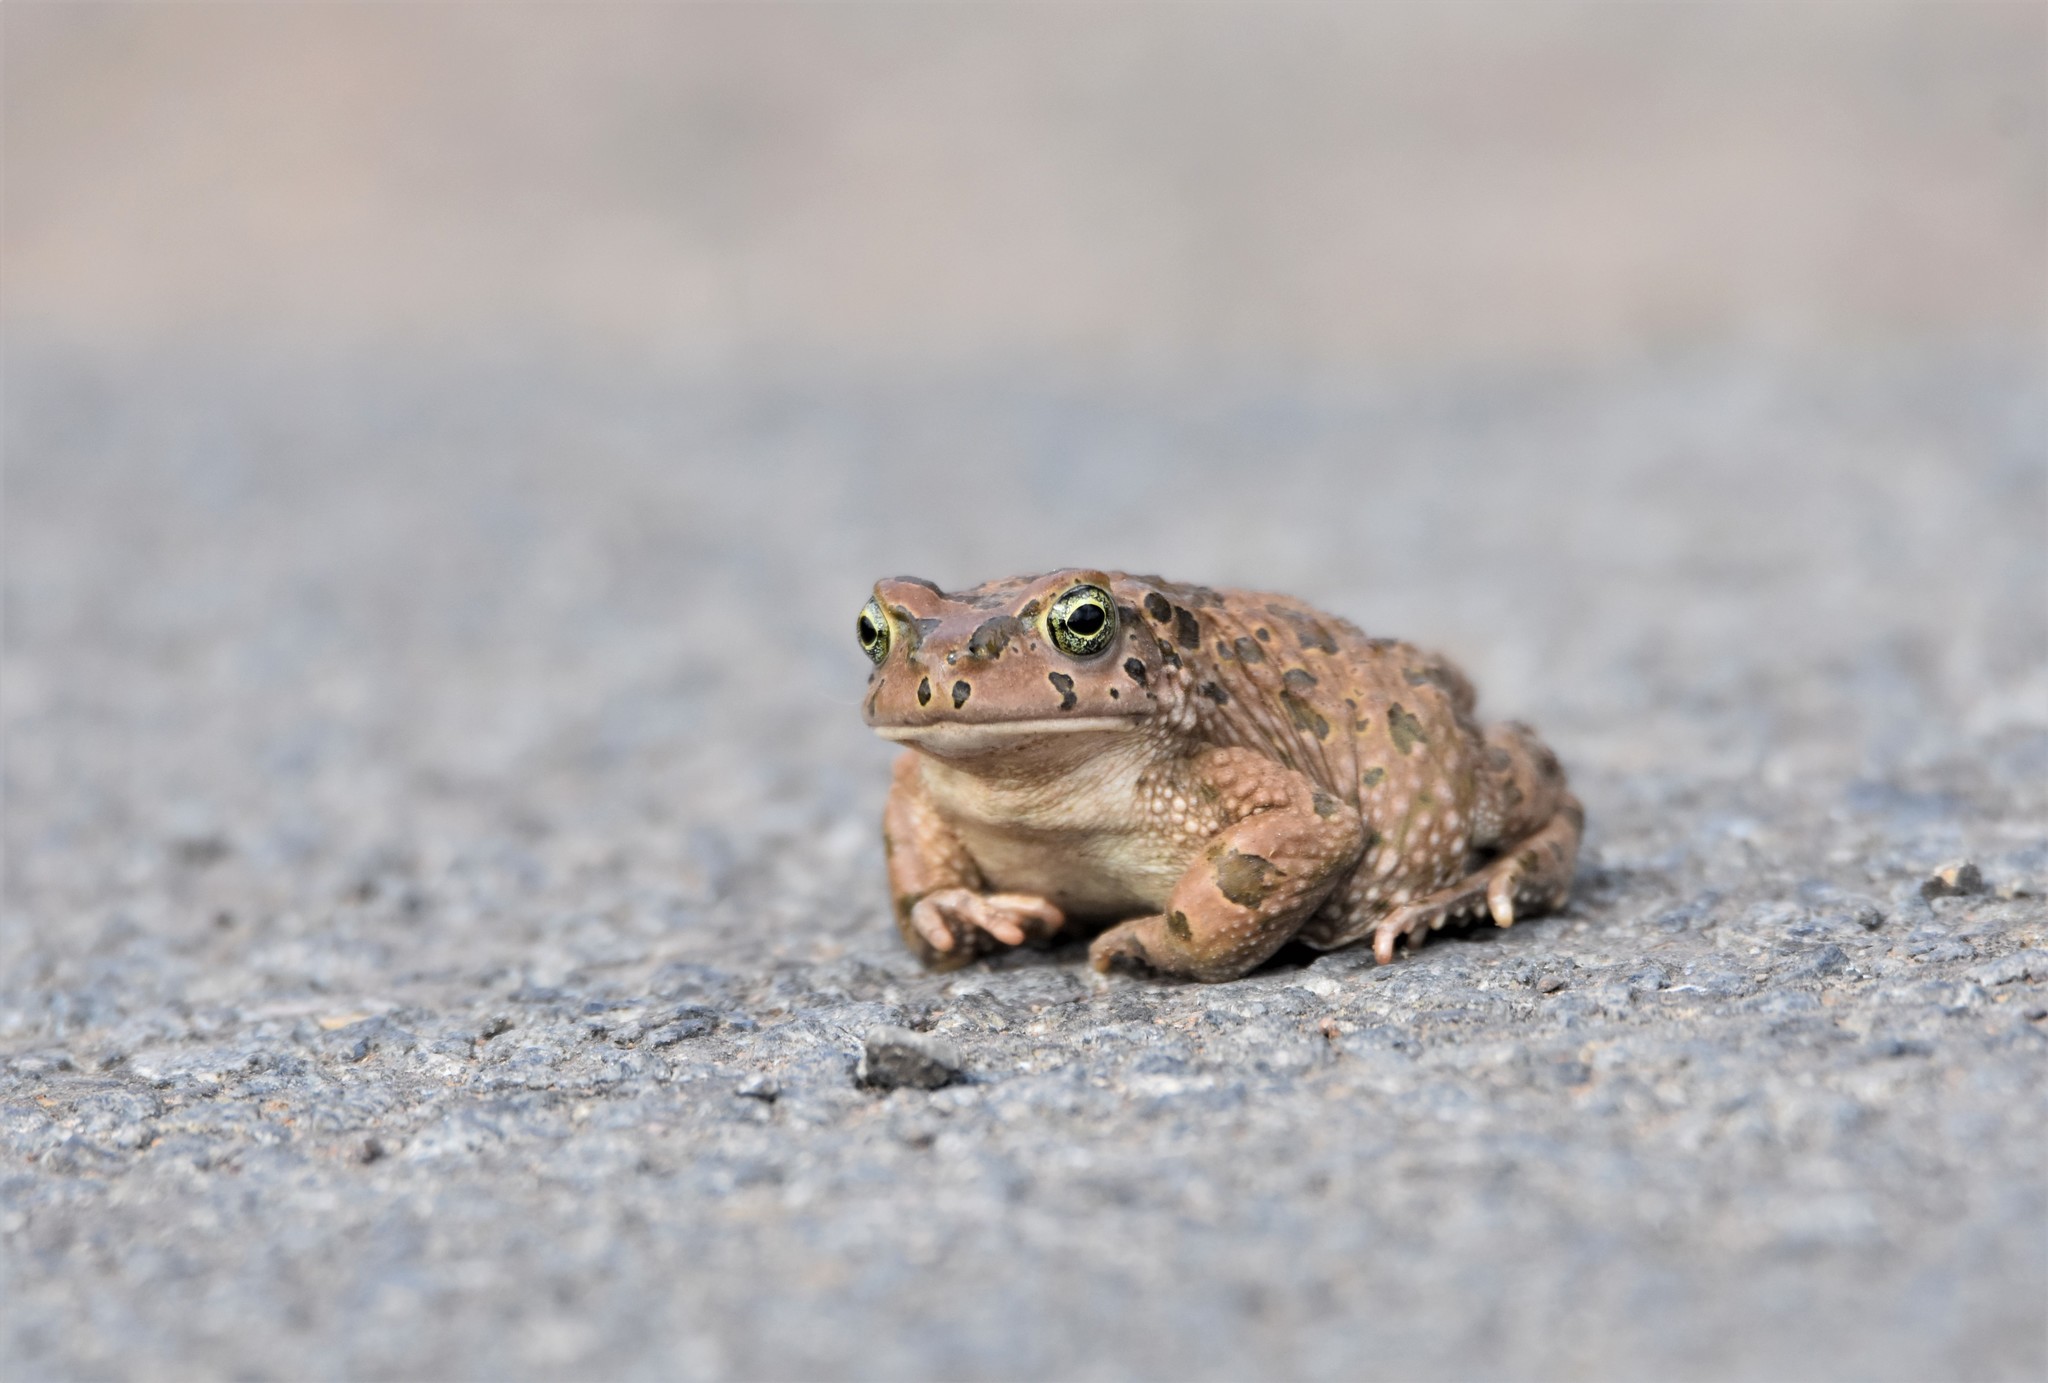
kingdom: Animalia
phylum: Chordata
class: Amphibia
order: Anura
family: Bufonidae
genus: Vandijkophrynus
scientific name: Vandijkophrynus gariepensis
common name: Gariep toad
